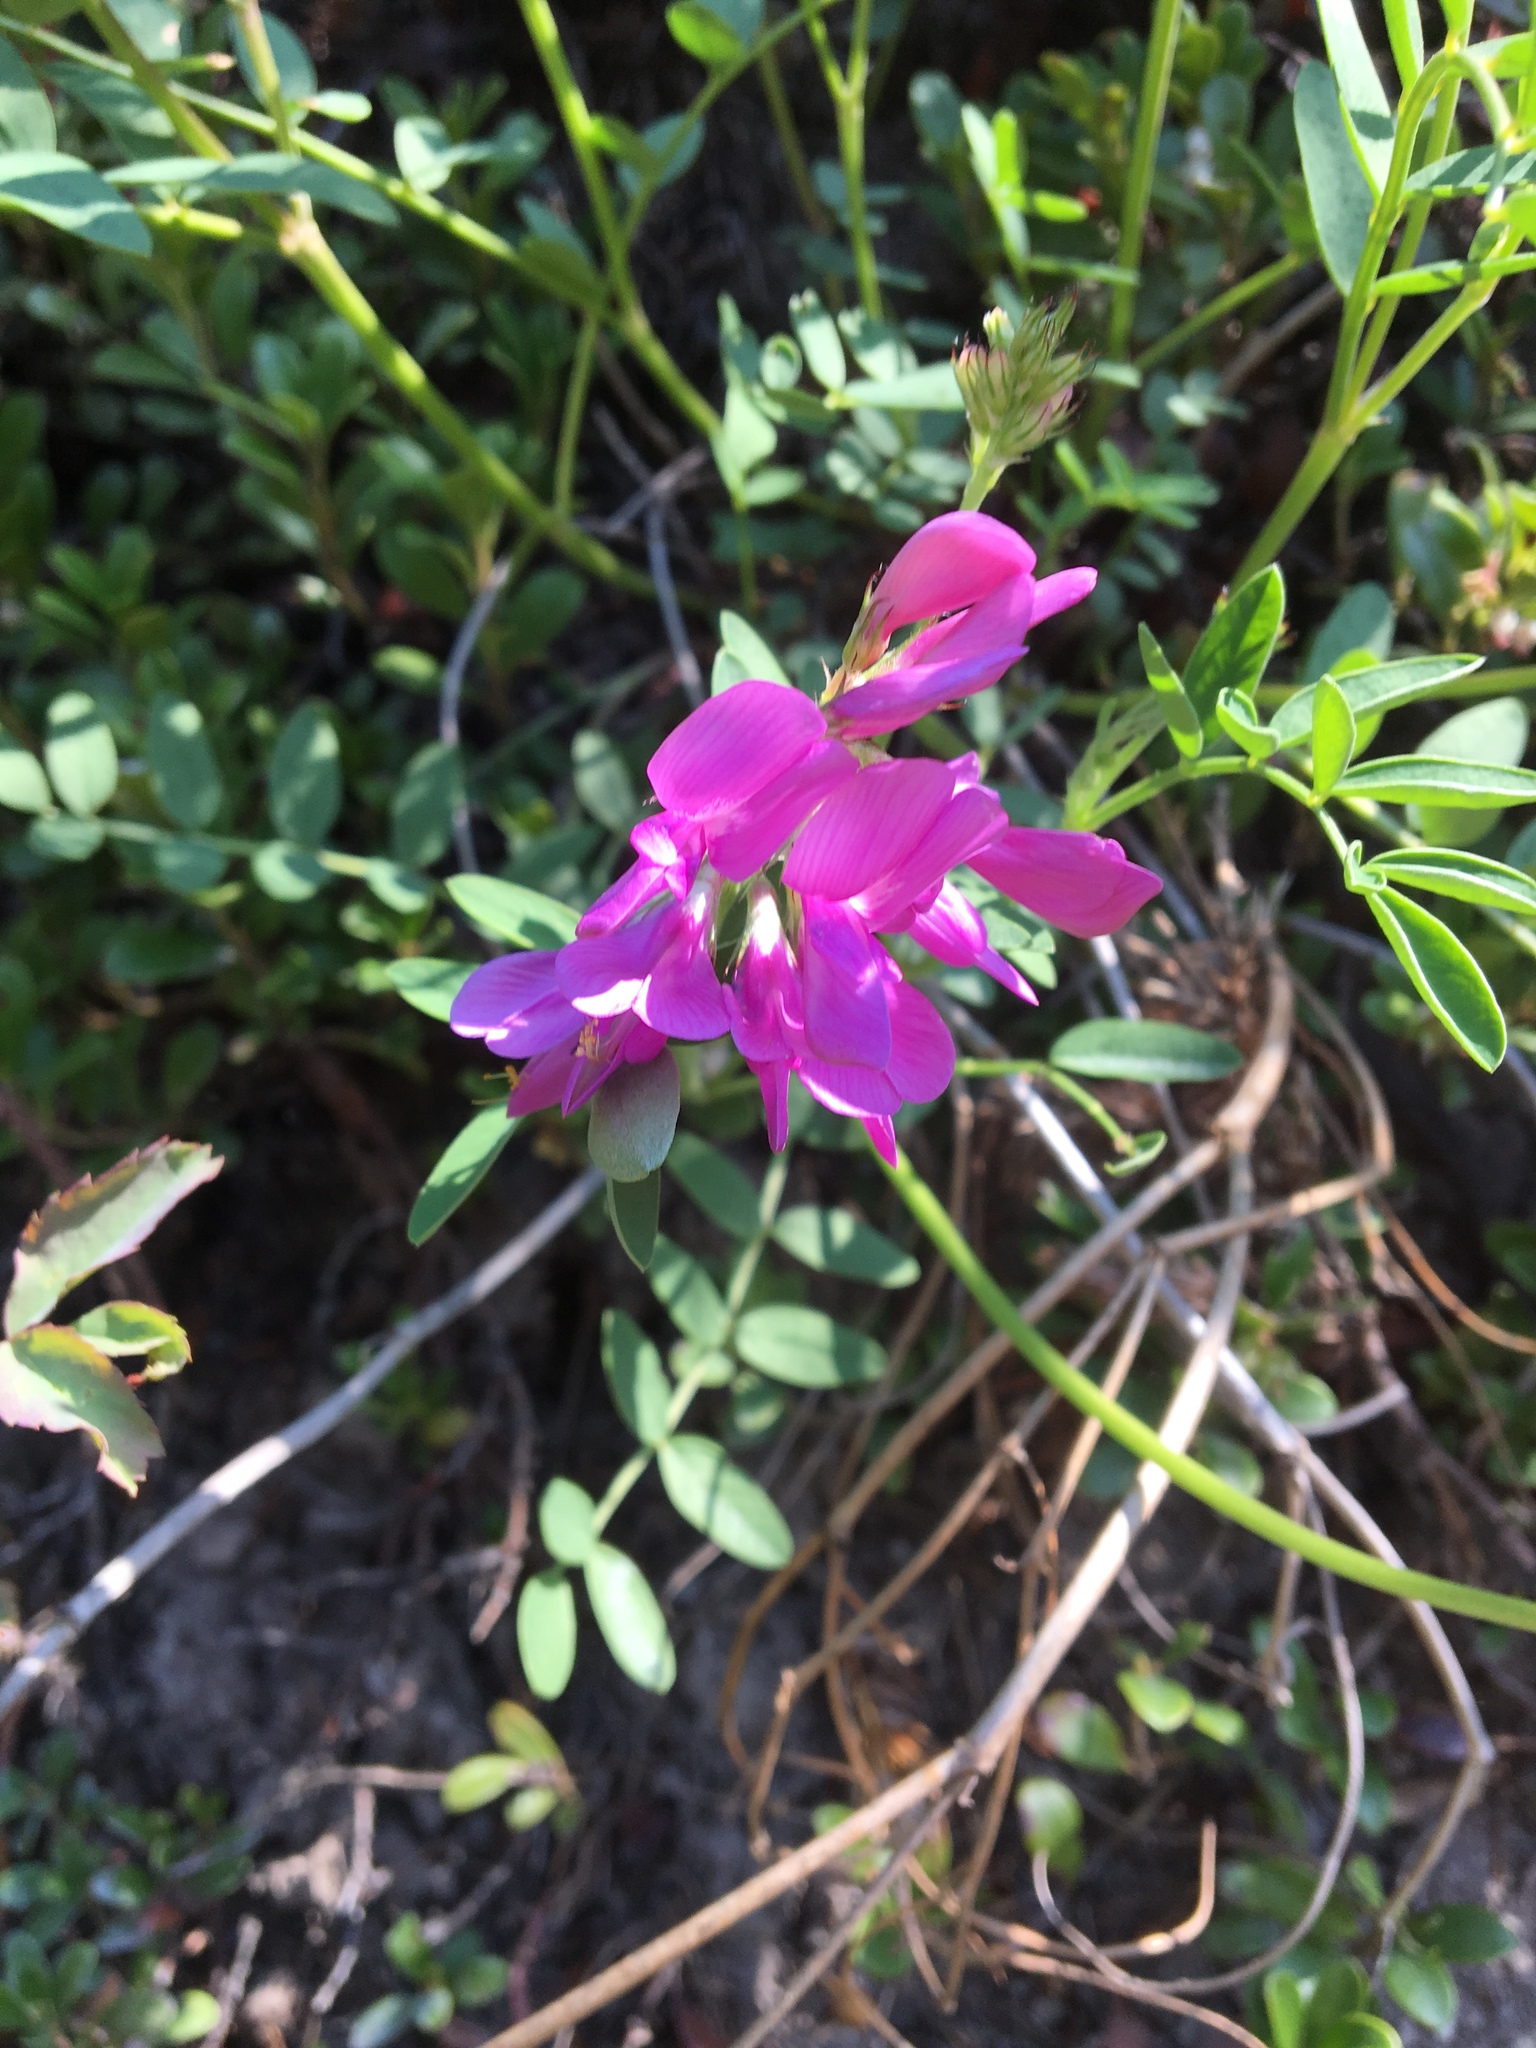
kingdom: Plantae
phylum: Tracheophyta
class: Magnoliopsida
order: Fabales
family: Fabaceae
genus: Hedysarum
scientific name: Hedysarum boreale
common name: Northern sweet-vetch
